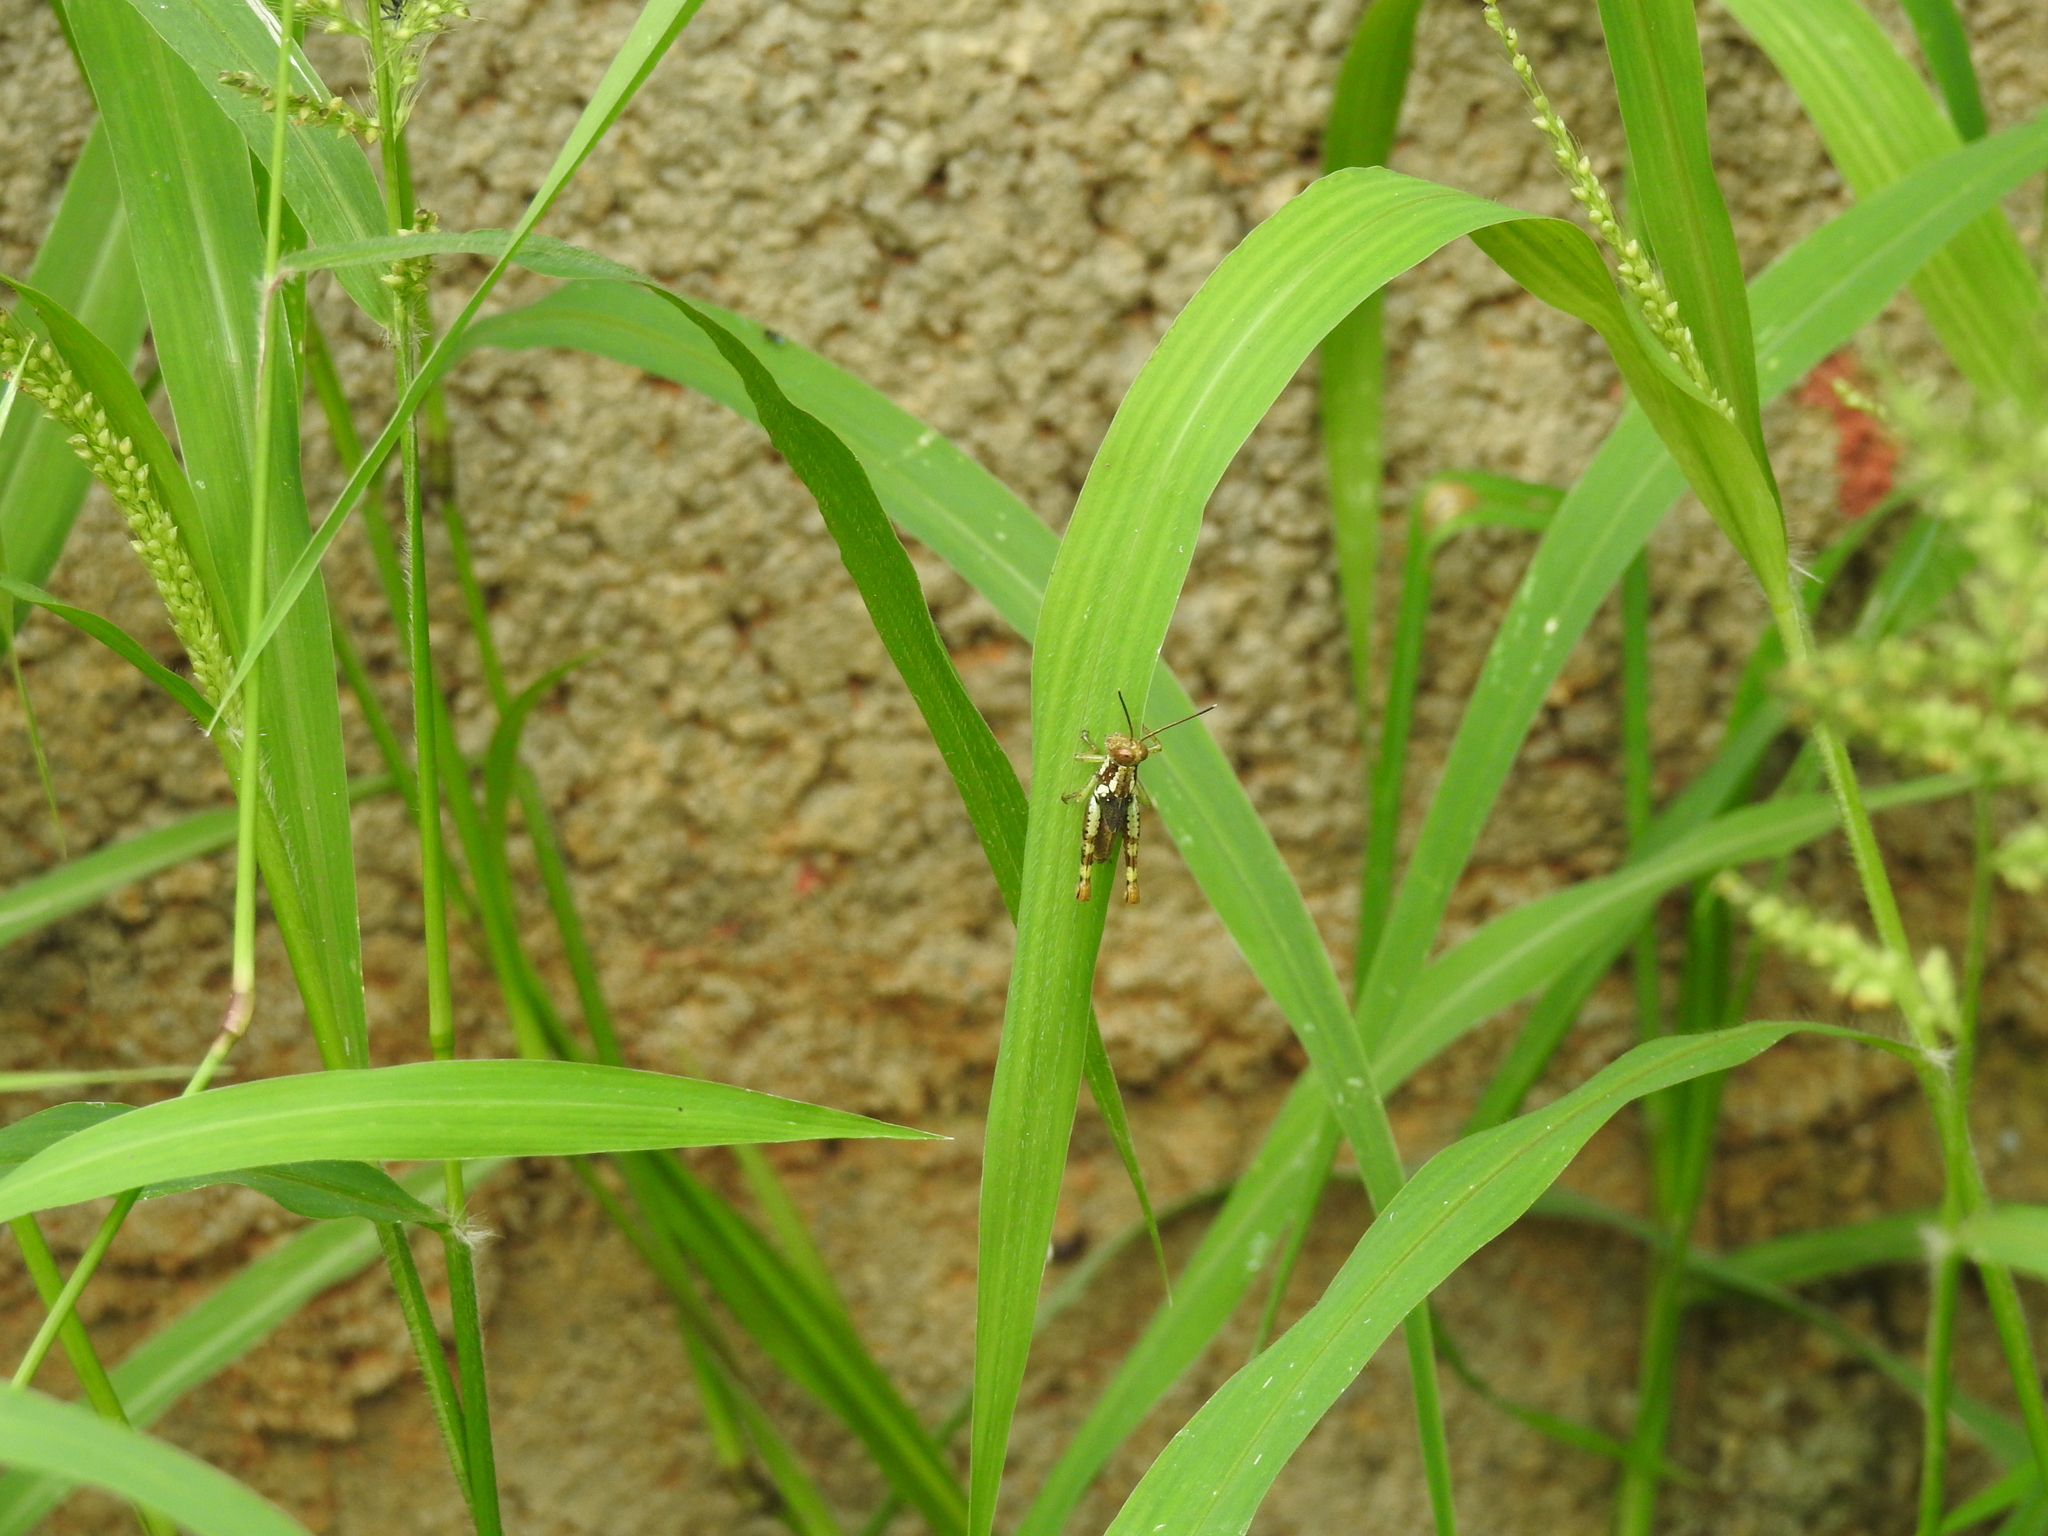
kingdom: Animalia
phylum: Arthropoda
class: Insecta
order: Orthoptera
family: Acrididae
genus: Pirithoicus
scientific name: Pirithoicus ophthalmicus
